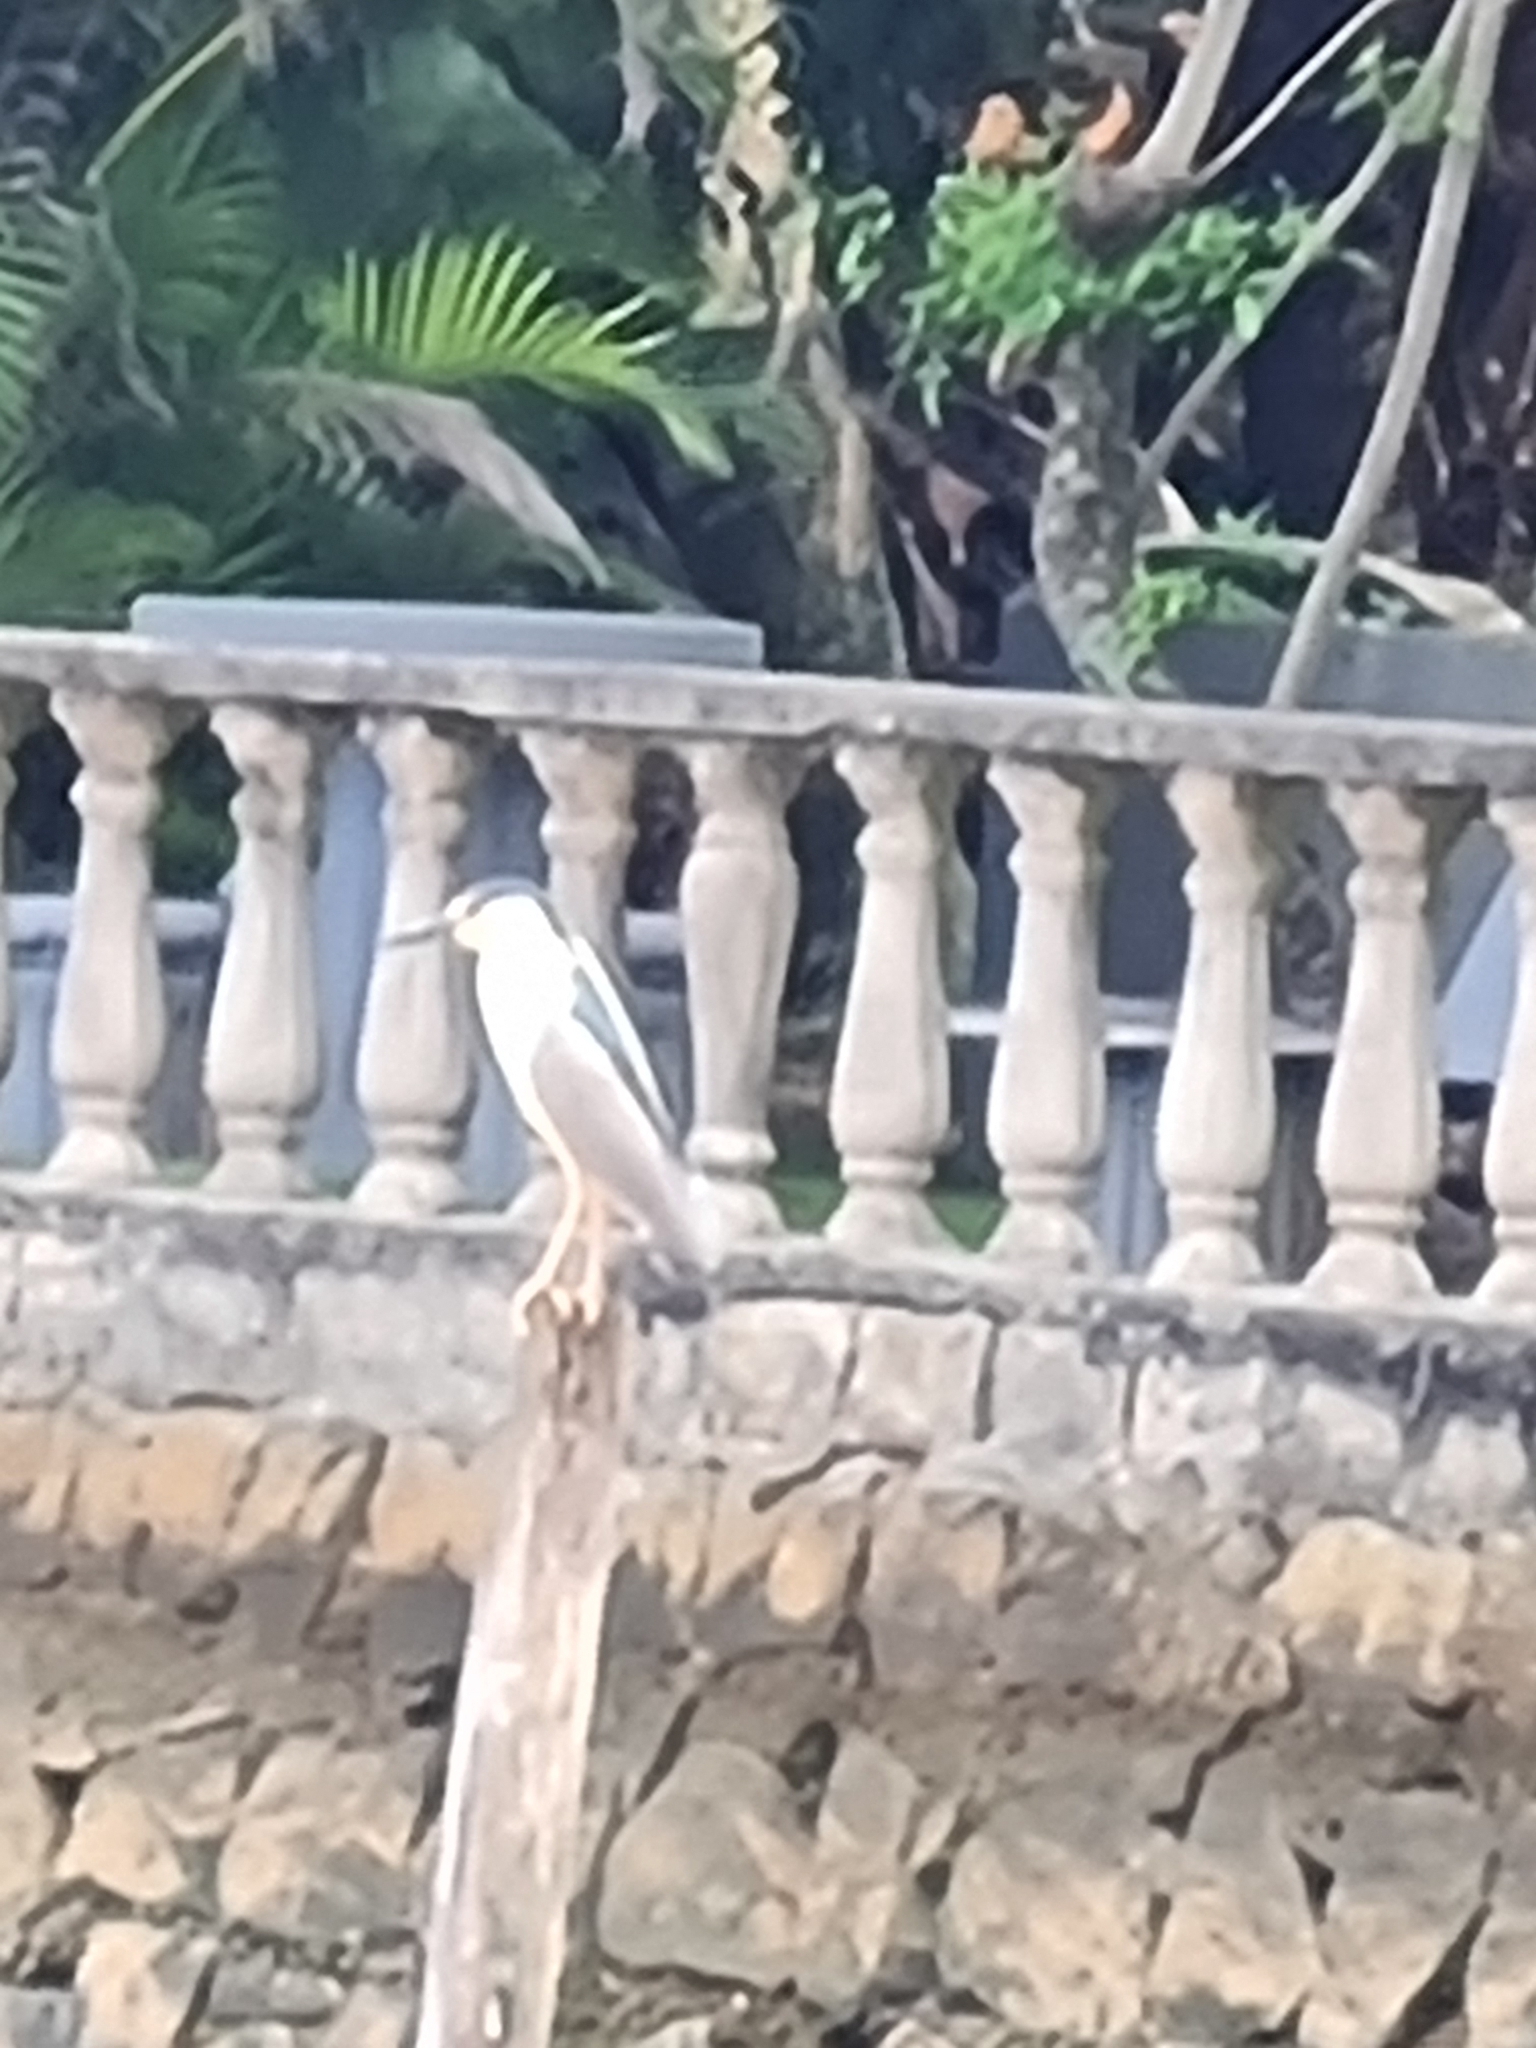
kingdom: Animalia
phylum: Chordata
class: Aves
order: Pelecaniformes
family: Ardeidae
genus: Nycticorax
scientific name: Nycticorax nycticorax
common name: Black-crowned night heron
